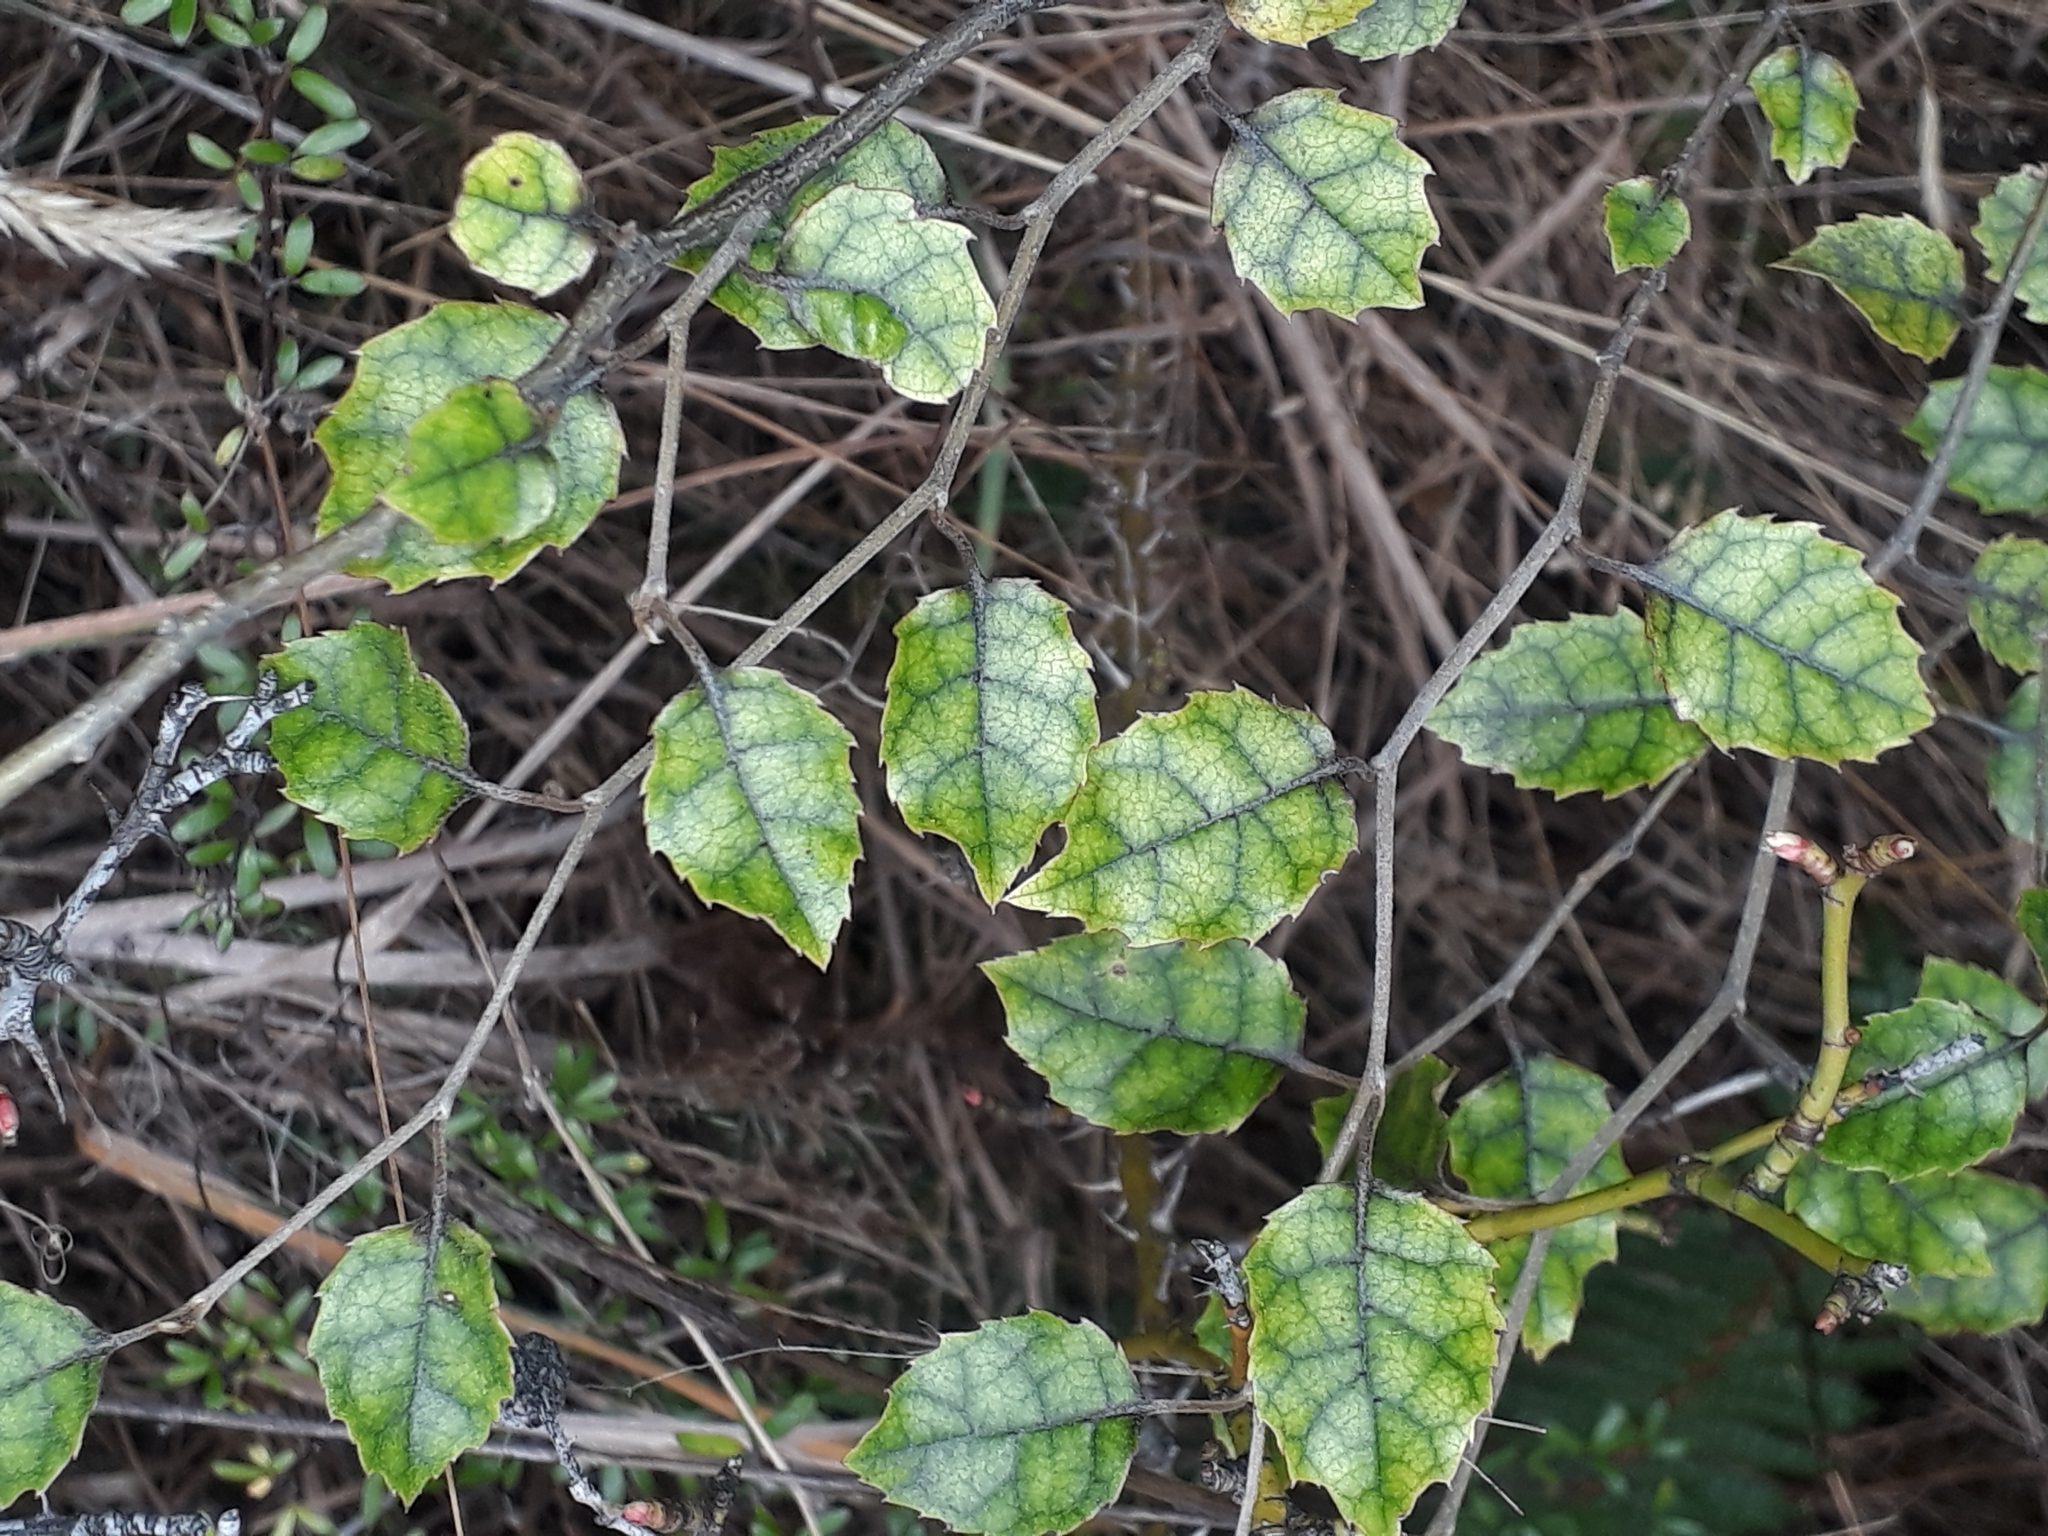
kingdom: Plantae
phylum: Tracheophyta
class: Magnoliopsida
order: Asterales
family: Rousseaceae
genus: Carpodetus
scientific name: Carpodetus serratus
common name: White mapau
